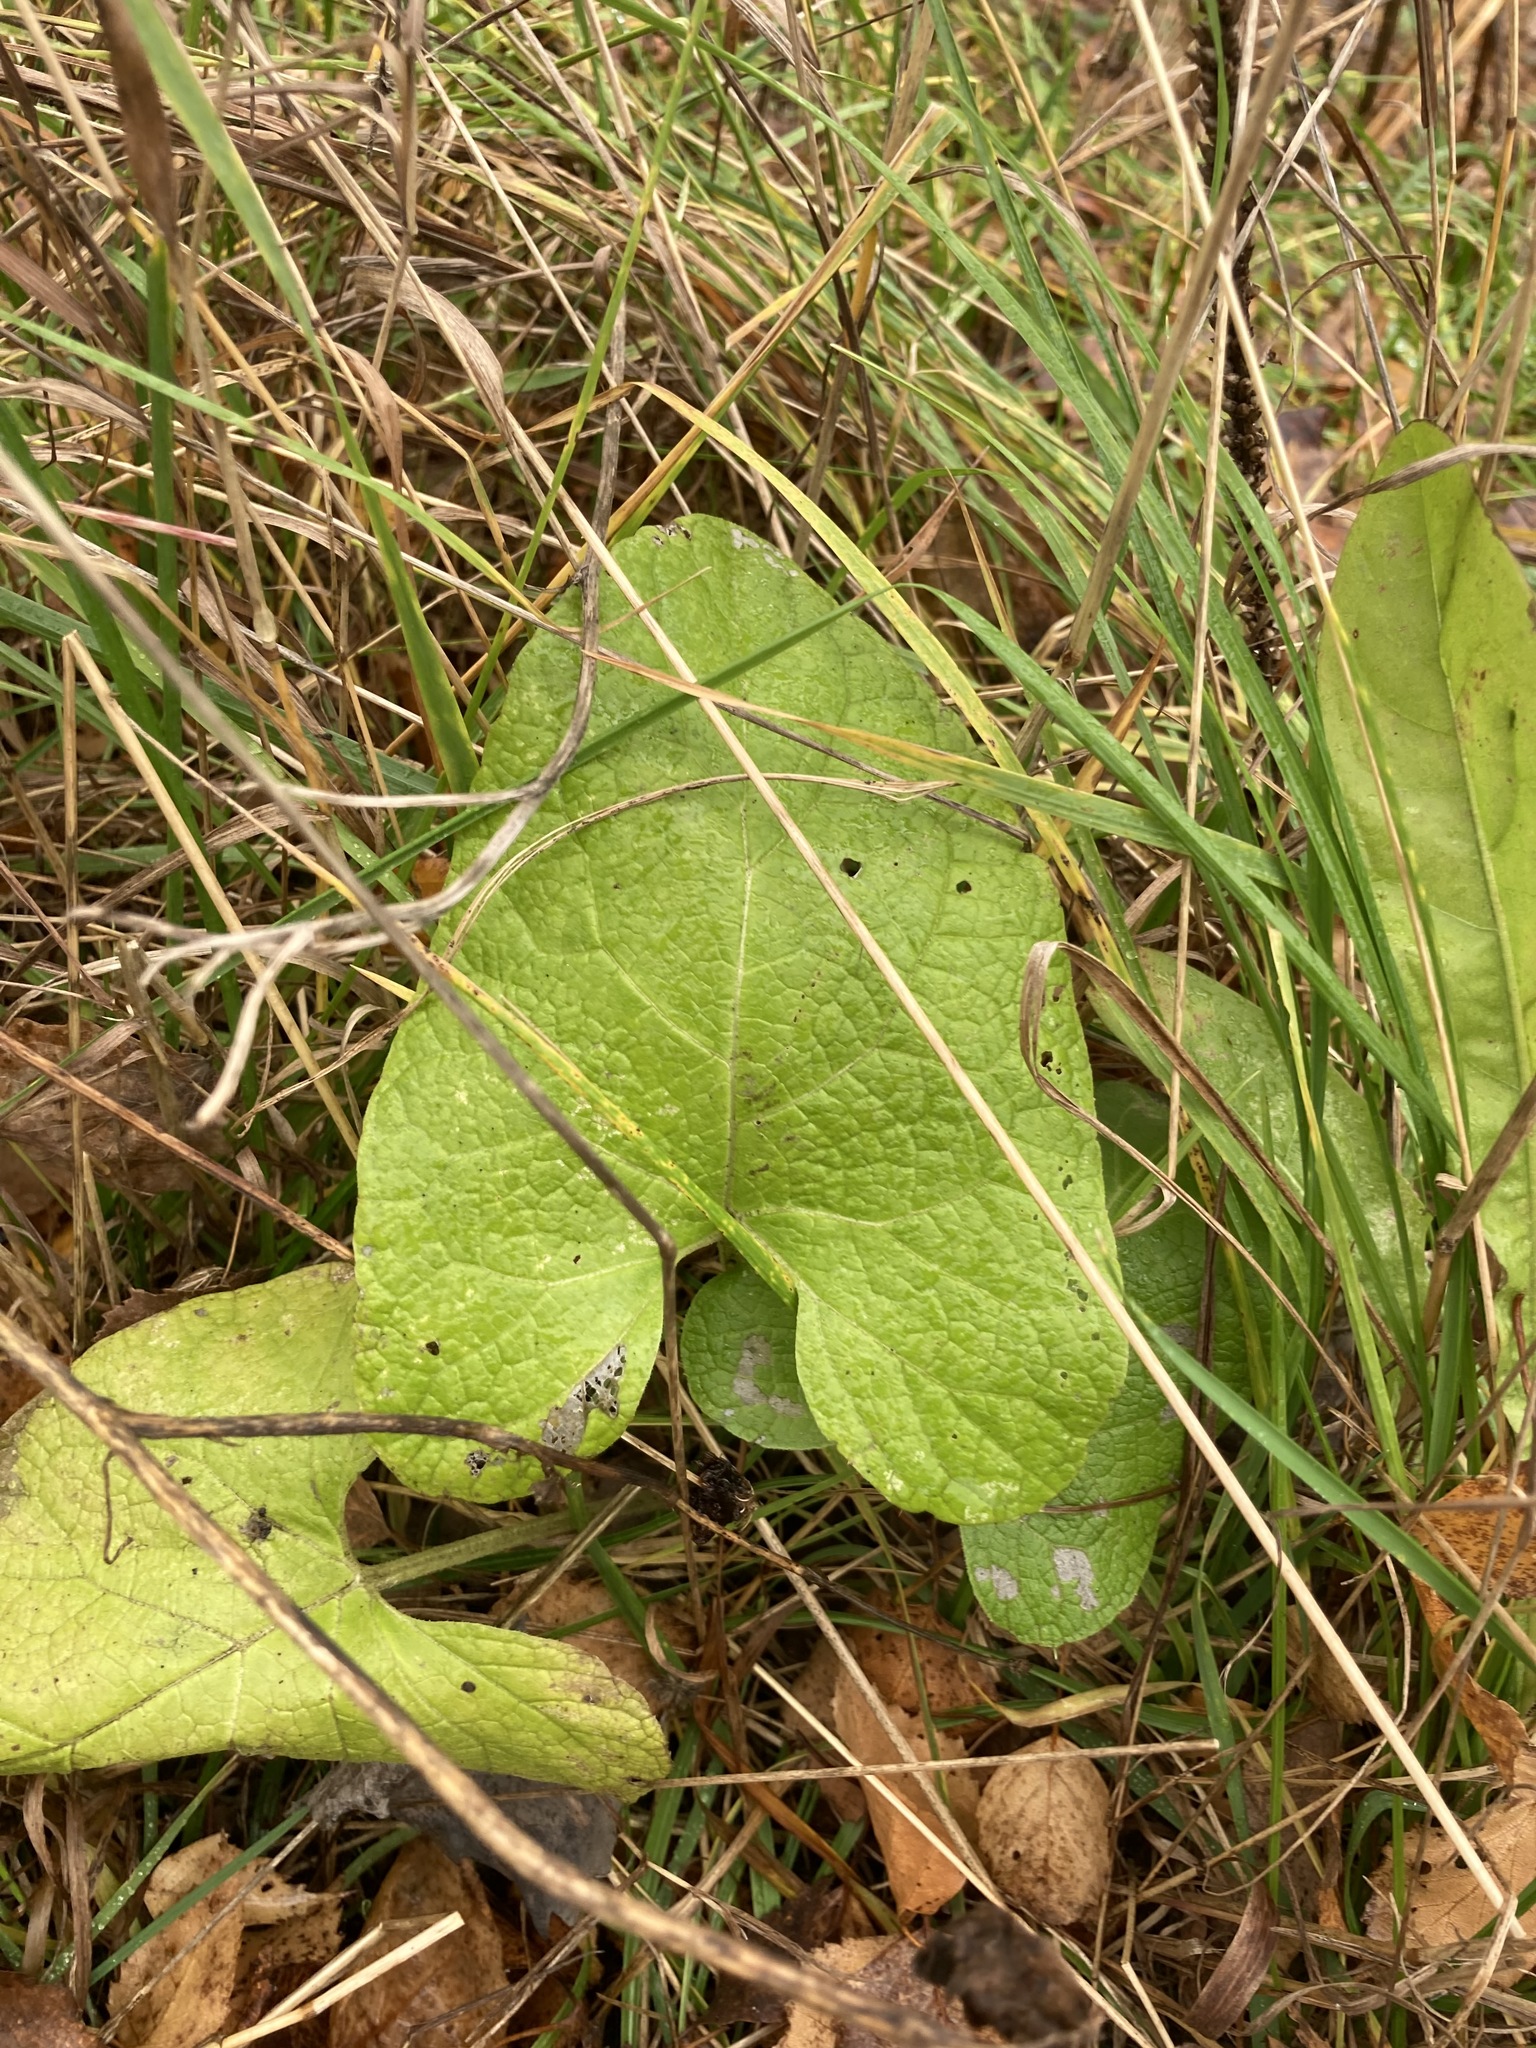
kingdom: Plantae
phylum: Tracheophyta
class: Magnoliopsida
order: Asterales
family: Asteraceae
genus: Arctium
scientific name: Arctium
